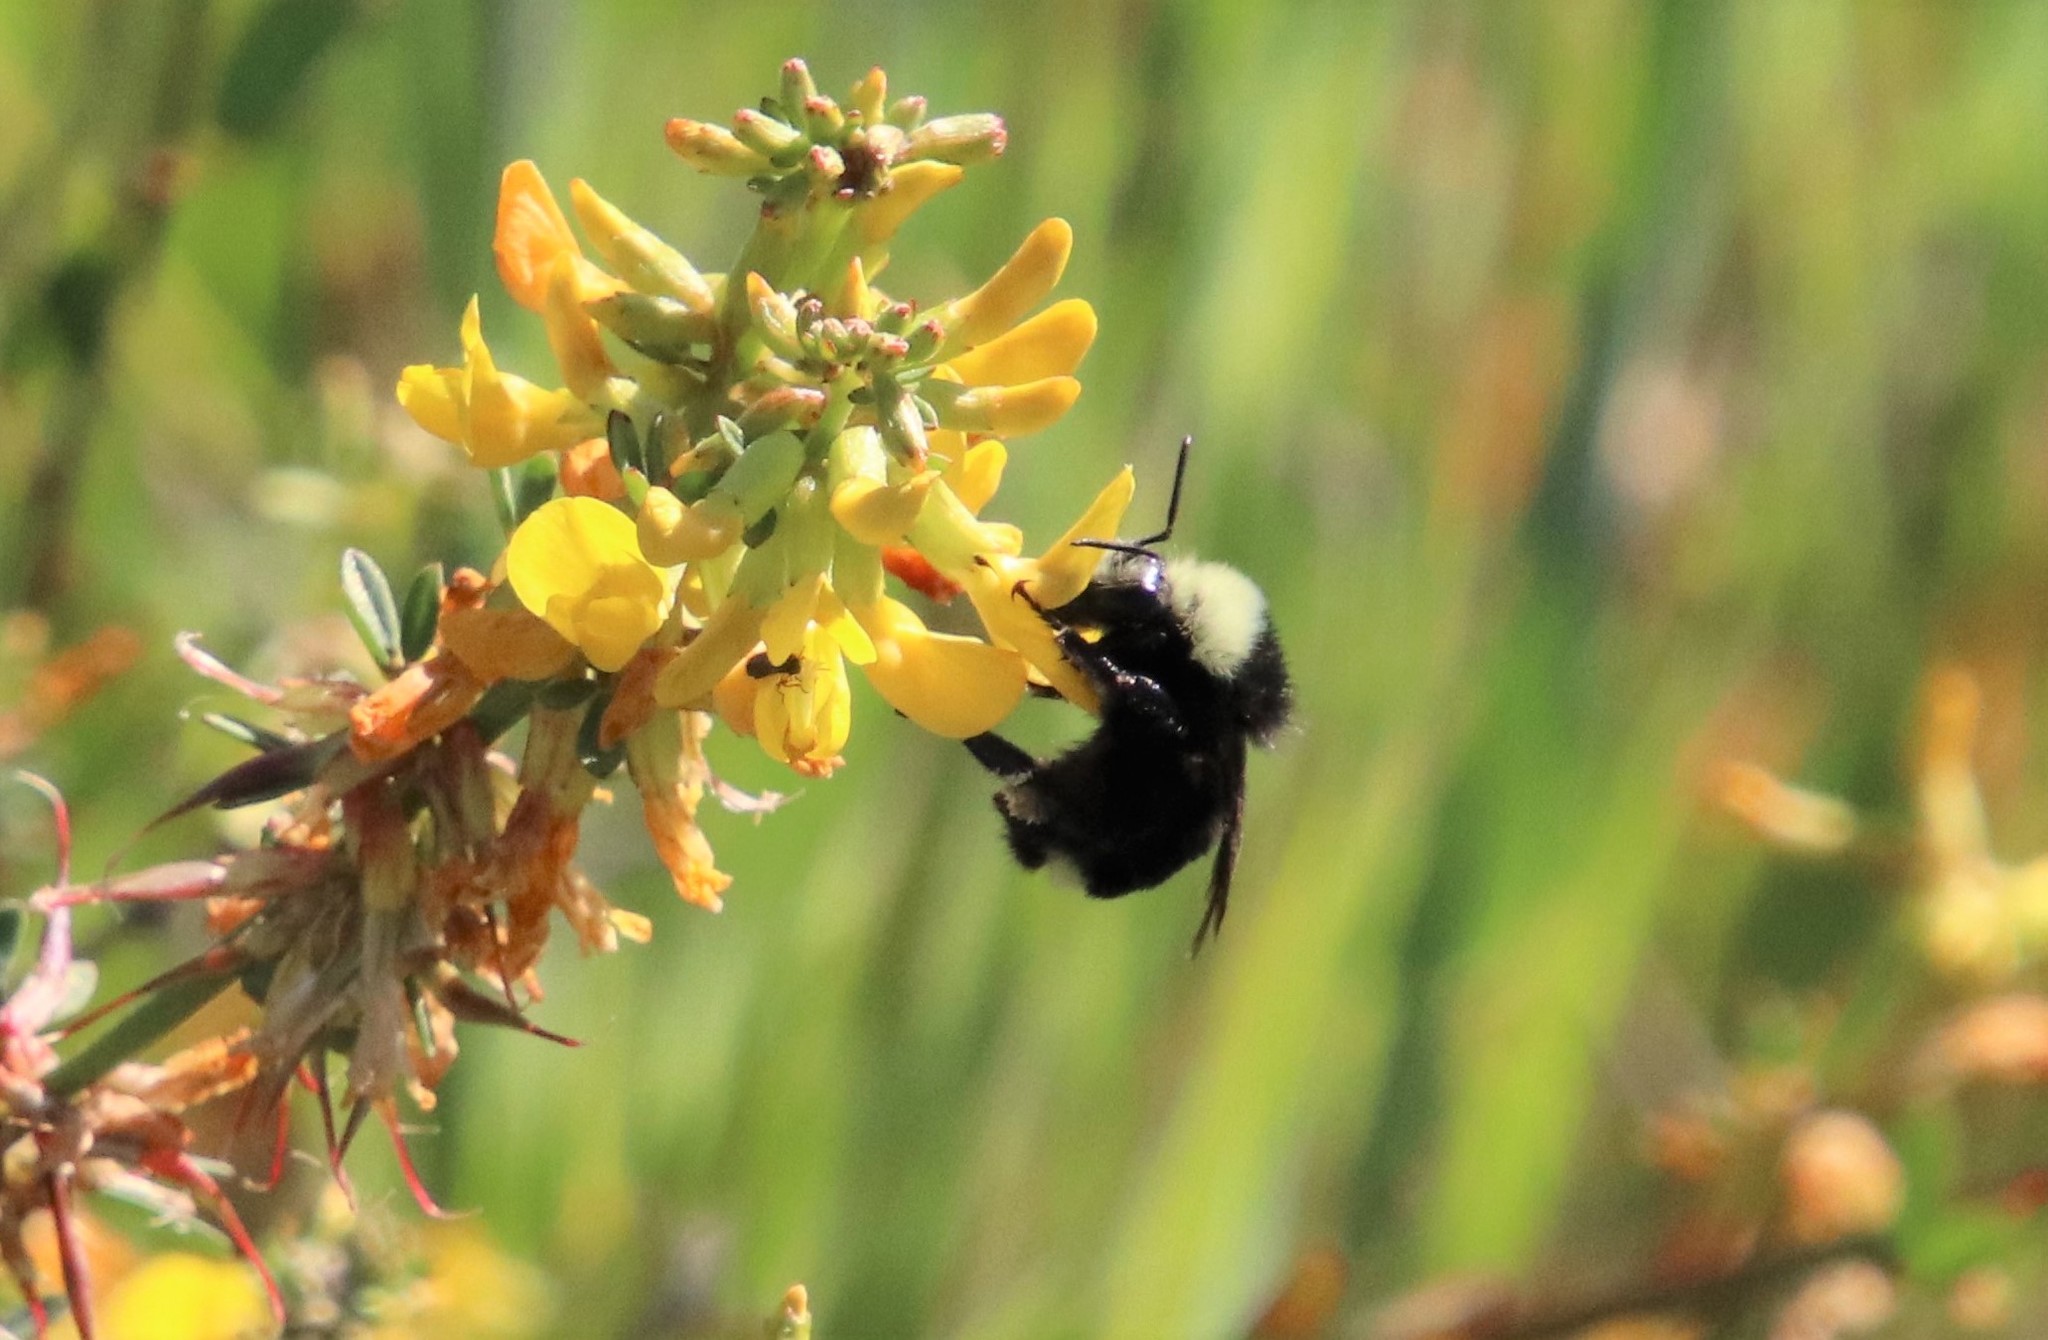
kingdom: Animalia
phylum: Arthropoda
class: Insecta
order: Hymenoptera
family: Apidae
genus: Bombus
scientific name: Bombus vosnesenskii
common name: Vosnesensky bumble bee
